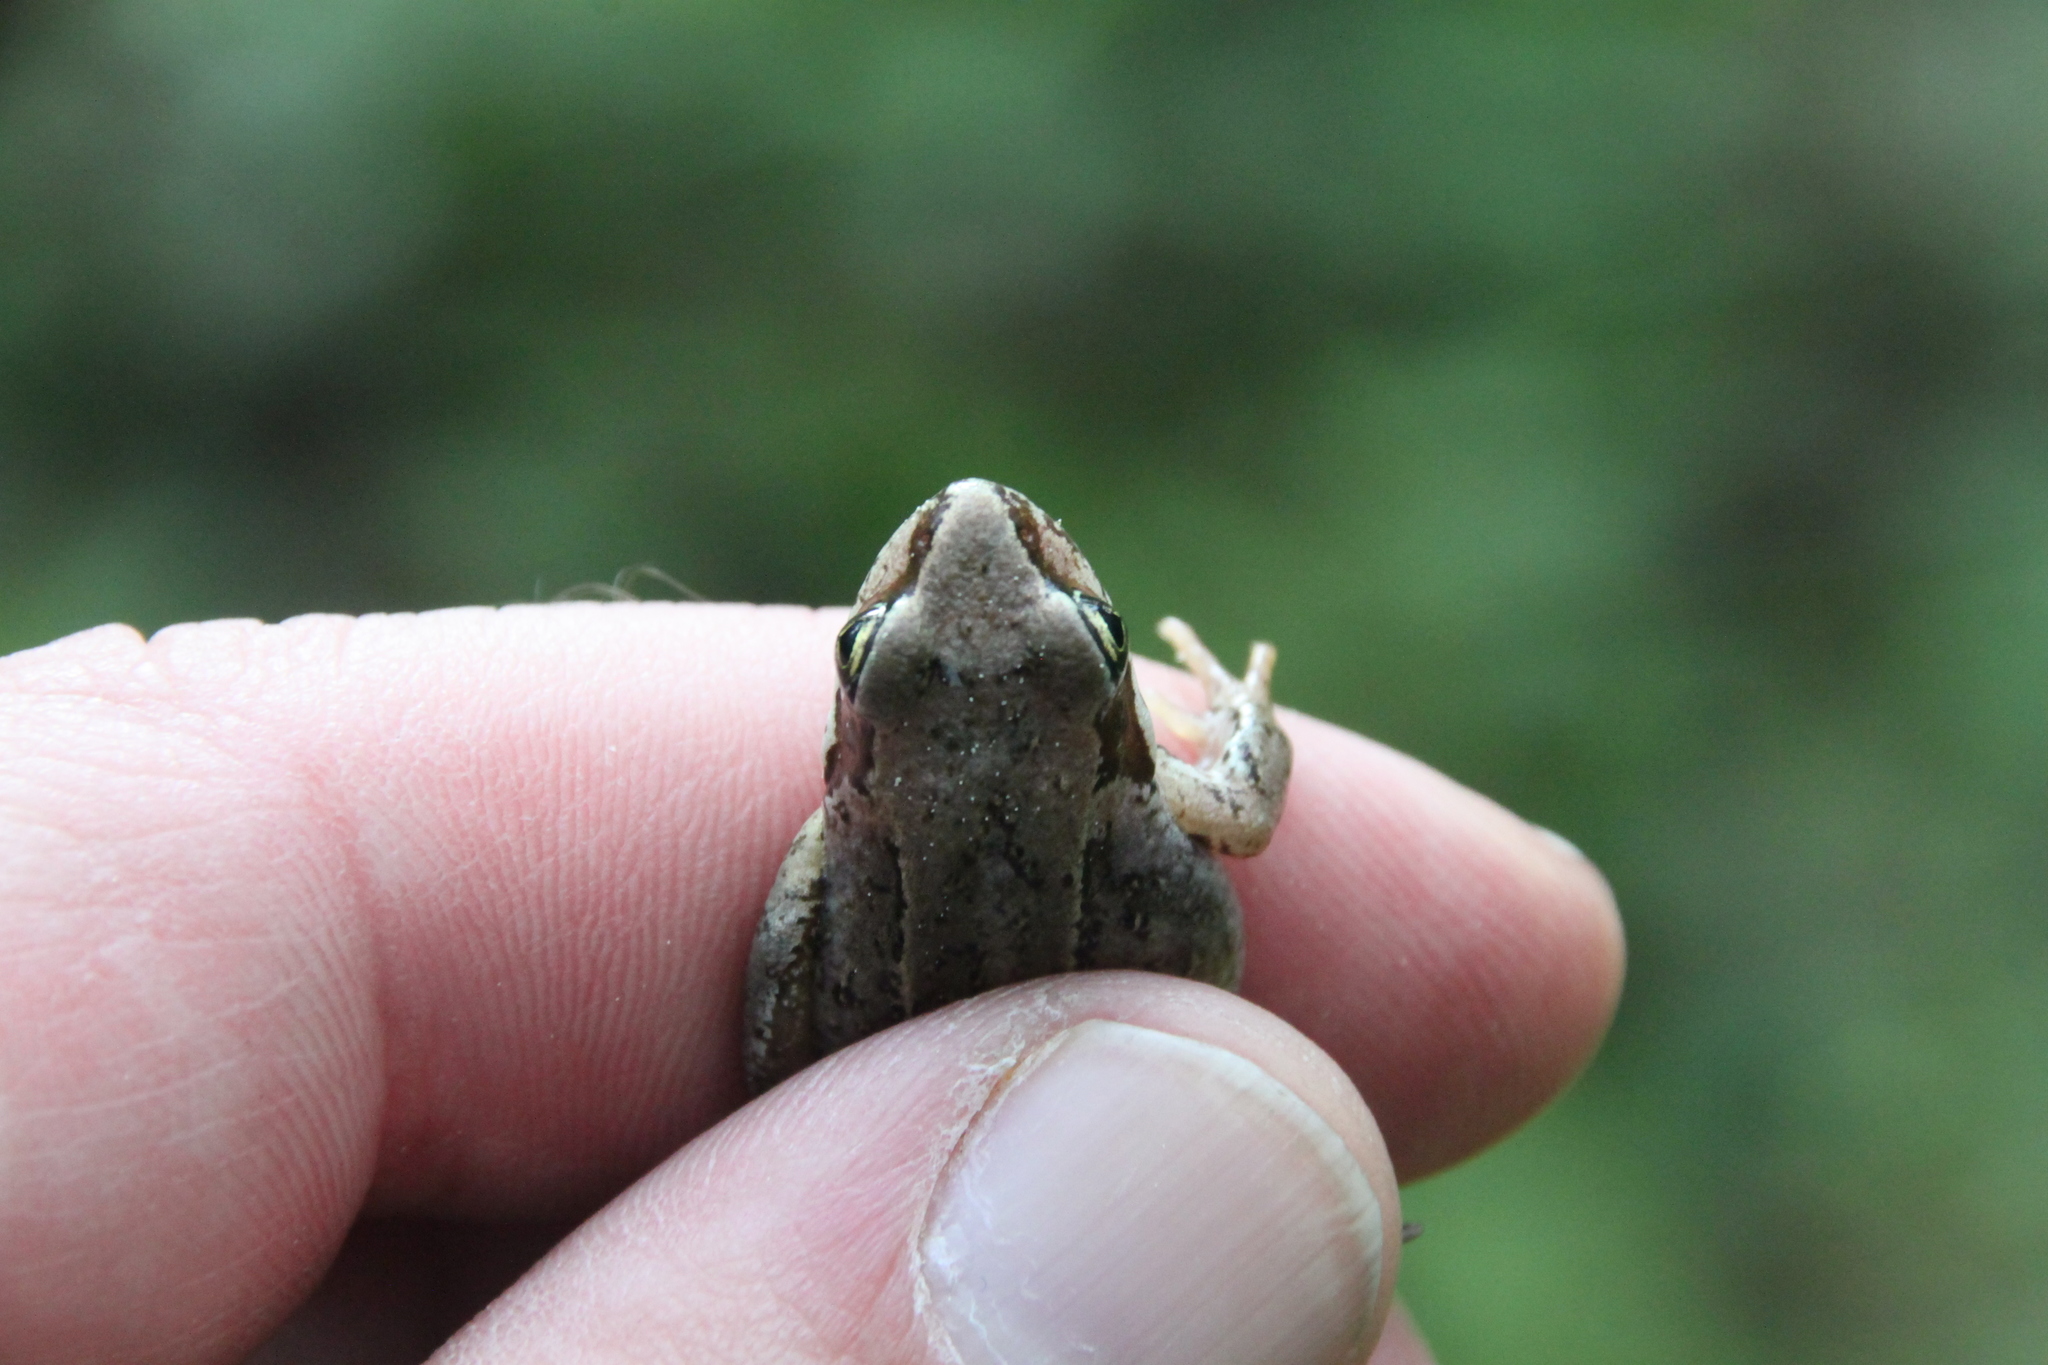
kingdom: Animalia
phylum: Chordata
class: Amphibia
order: Anura
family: Ranidae
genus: Rana
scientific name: Rana temporaria
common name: Common frog
